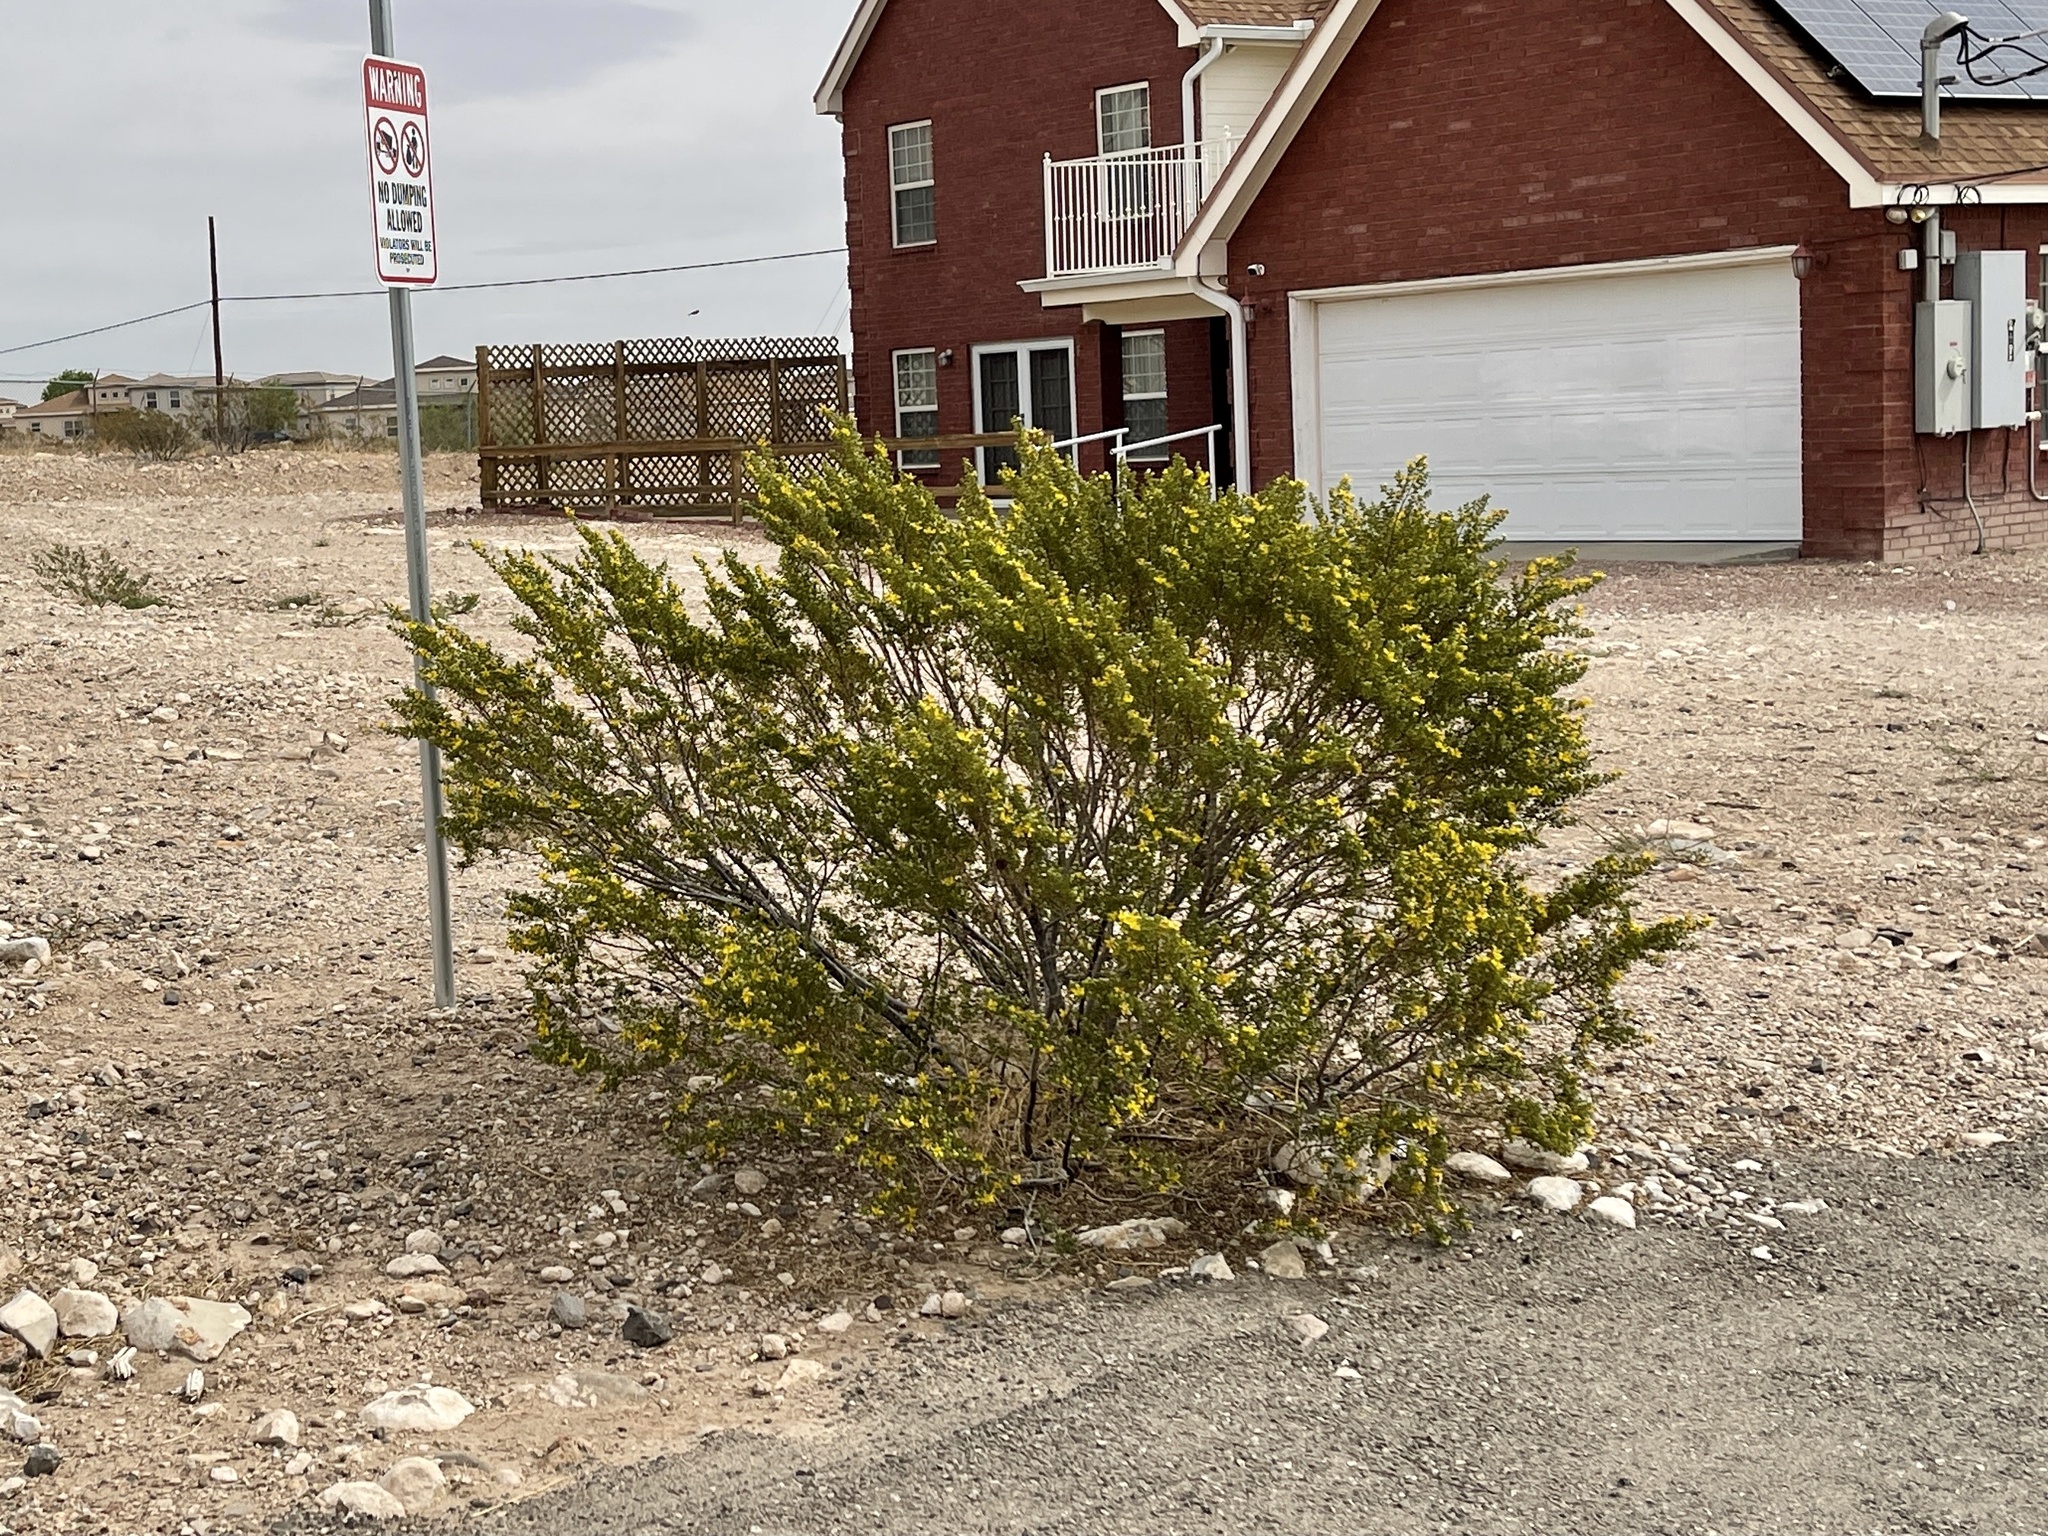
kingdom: Plantae
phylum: Tracheophyta
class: Magnoliopsida
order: Zygophyllales
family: Zygophyllaceae
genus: Larrea
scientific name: Larrea tridentata
